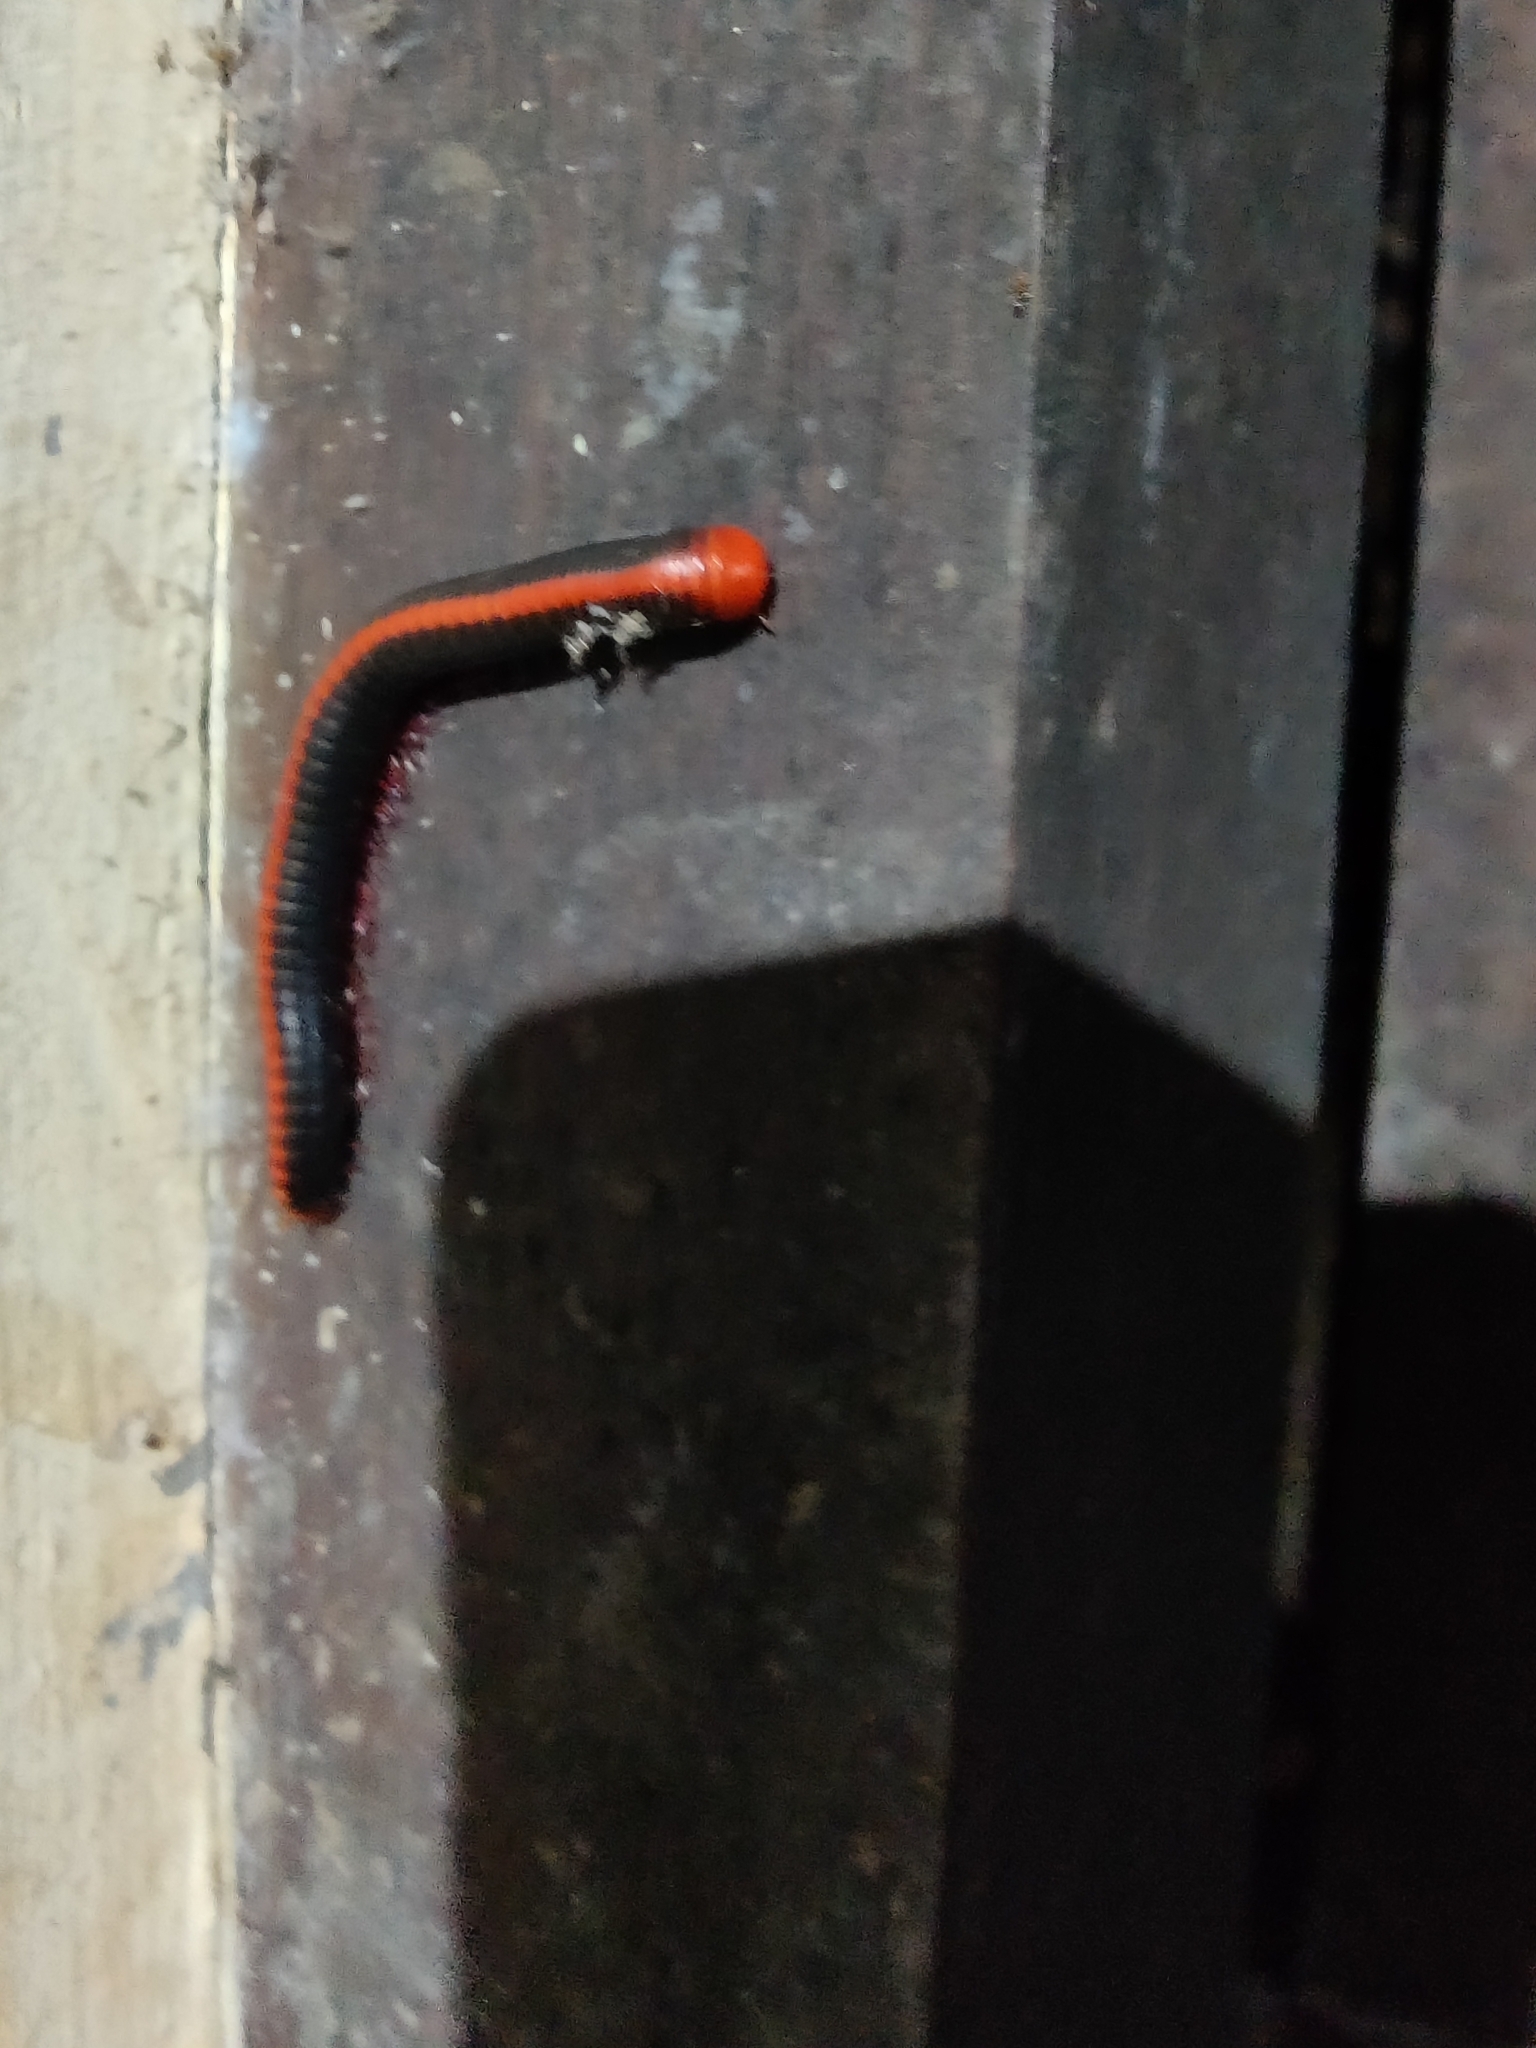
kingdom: Animalia
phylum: Arthropoda
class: Diplopoda
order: Spirobolida
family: Pachybolidae
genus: Xenobolus
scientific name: Xenobolus carnifex
